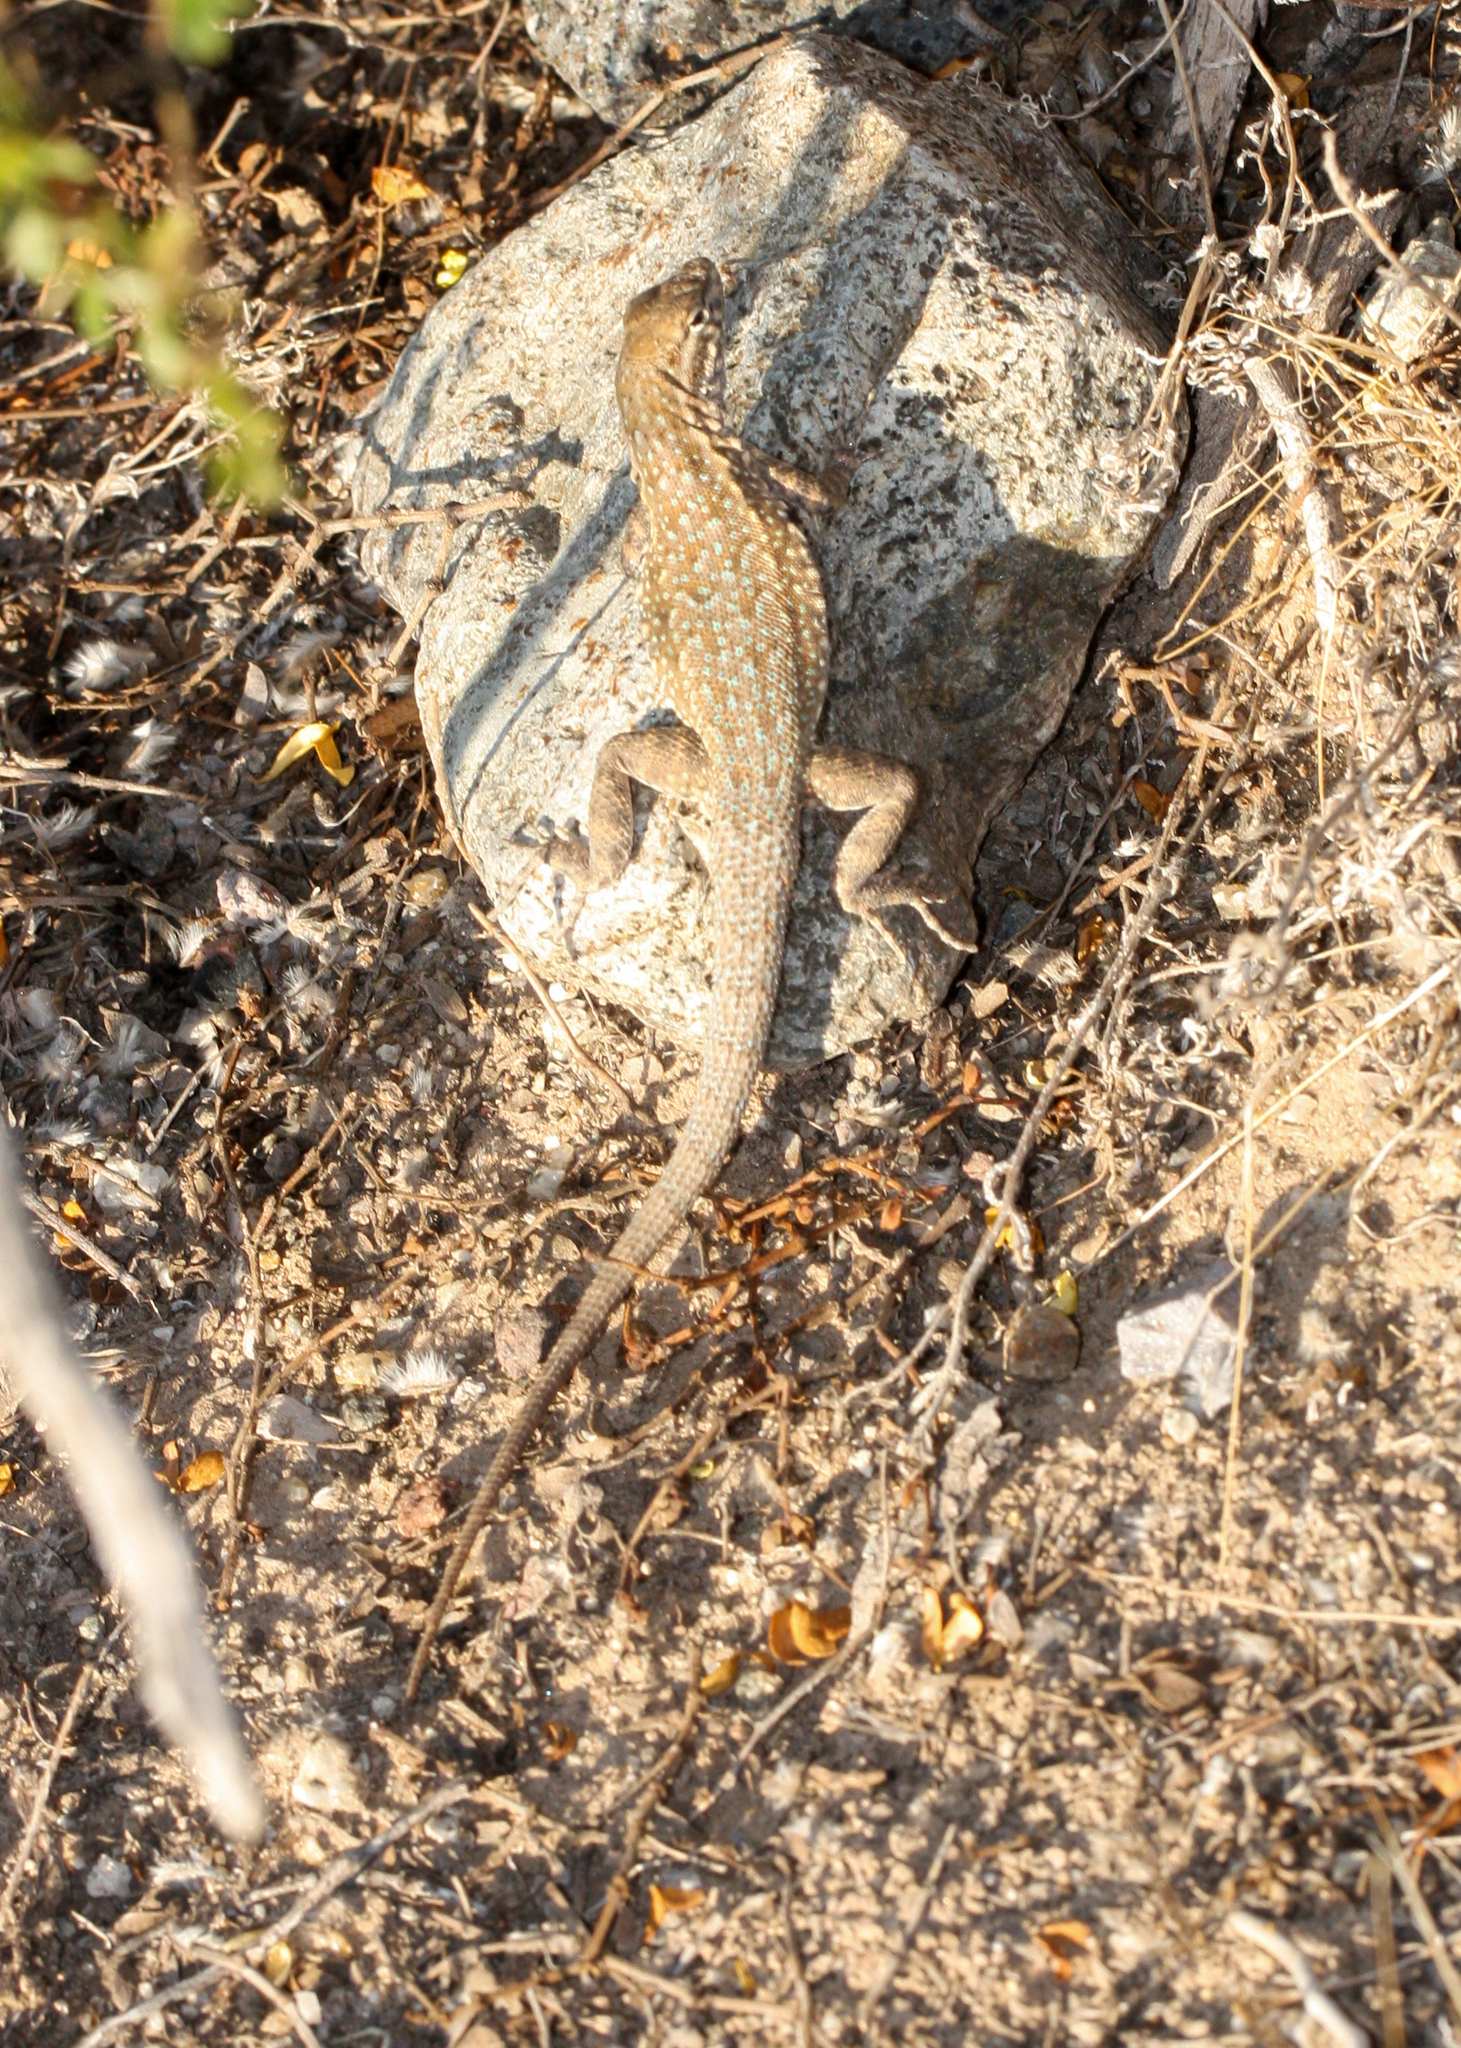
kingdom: Animalia
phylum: Chordata
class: Squamata
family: Phrynosomatidae
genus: Uta
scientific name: Uta stansburiana
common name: Side-blotched lizard
